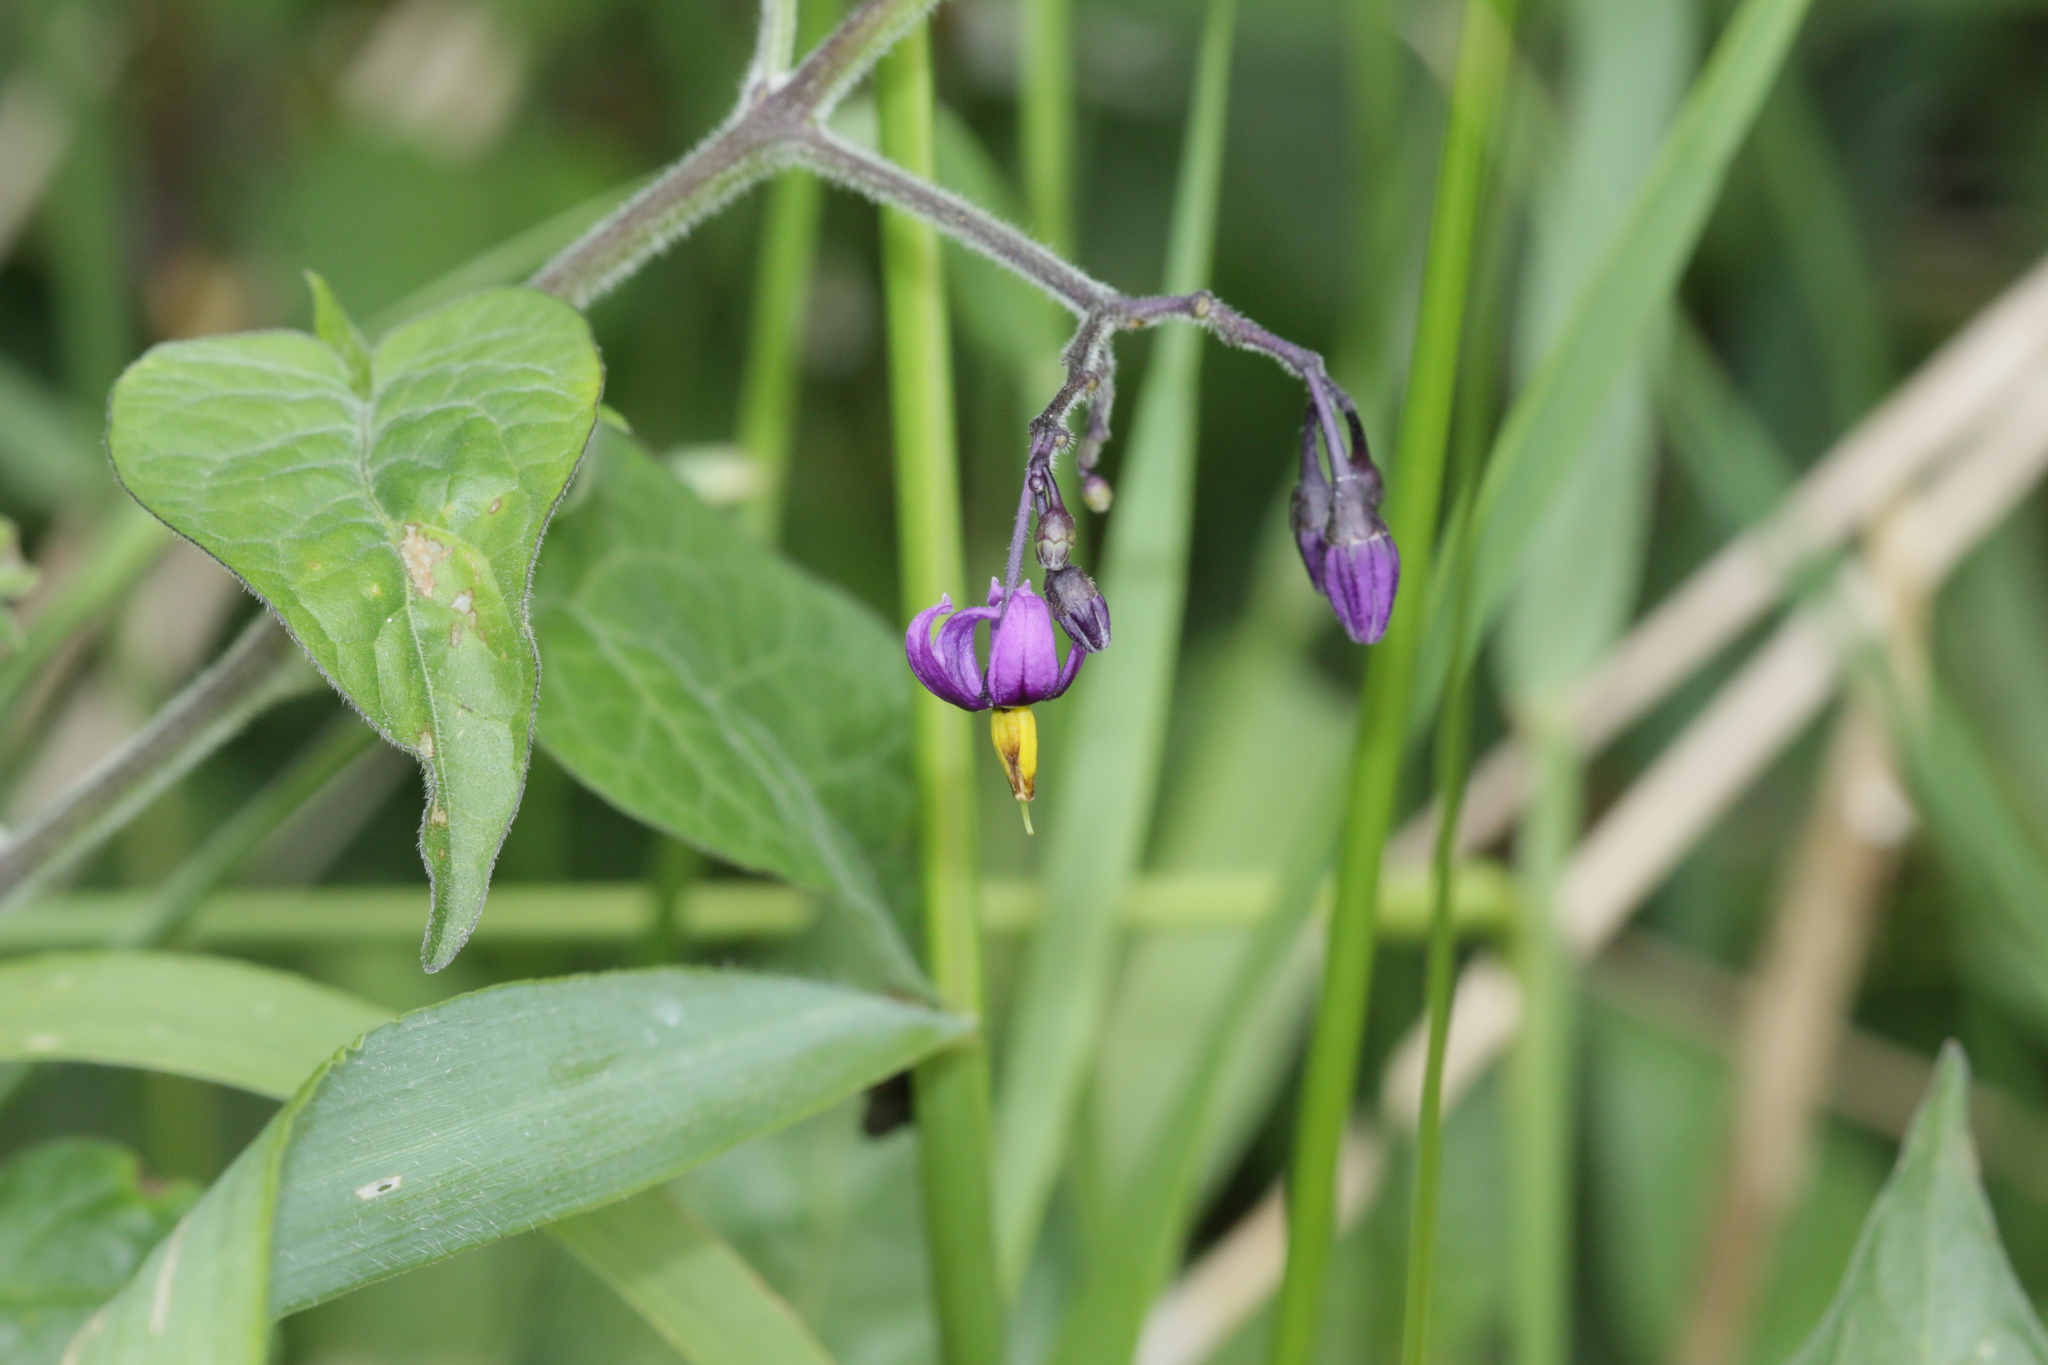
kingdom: Plantae
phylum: Tracheophyta
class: Magnoliopsida
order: Solanales
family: Solanaceae
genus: Solanum
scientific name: Solanum dulcamara
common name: Climbing nightshade
